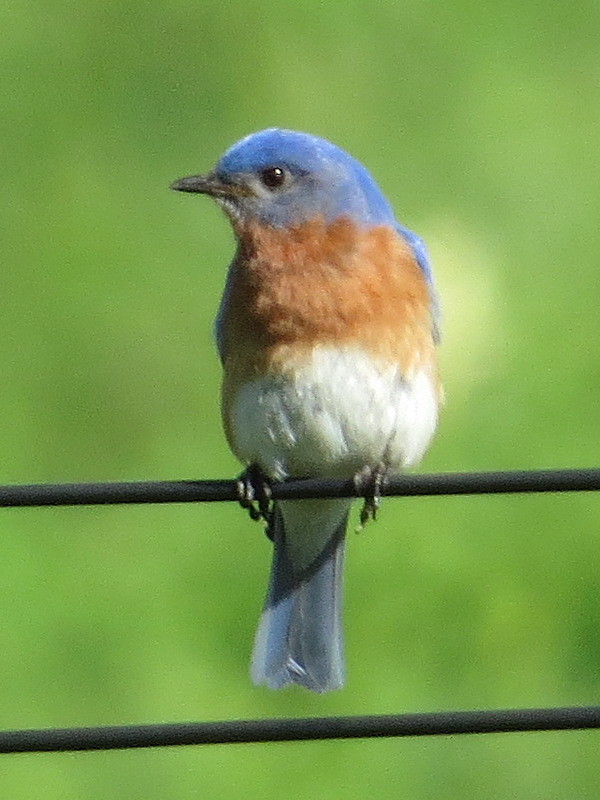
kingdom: Animalia
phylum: Chordata
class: Aves
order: Passeriformes
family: Turdidae
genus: Sialia
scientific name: Sialia sialis
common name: Eastern bluebird
